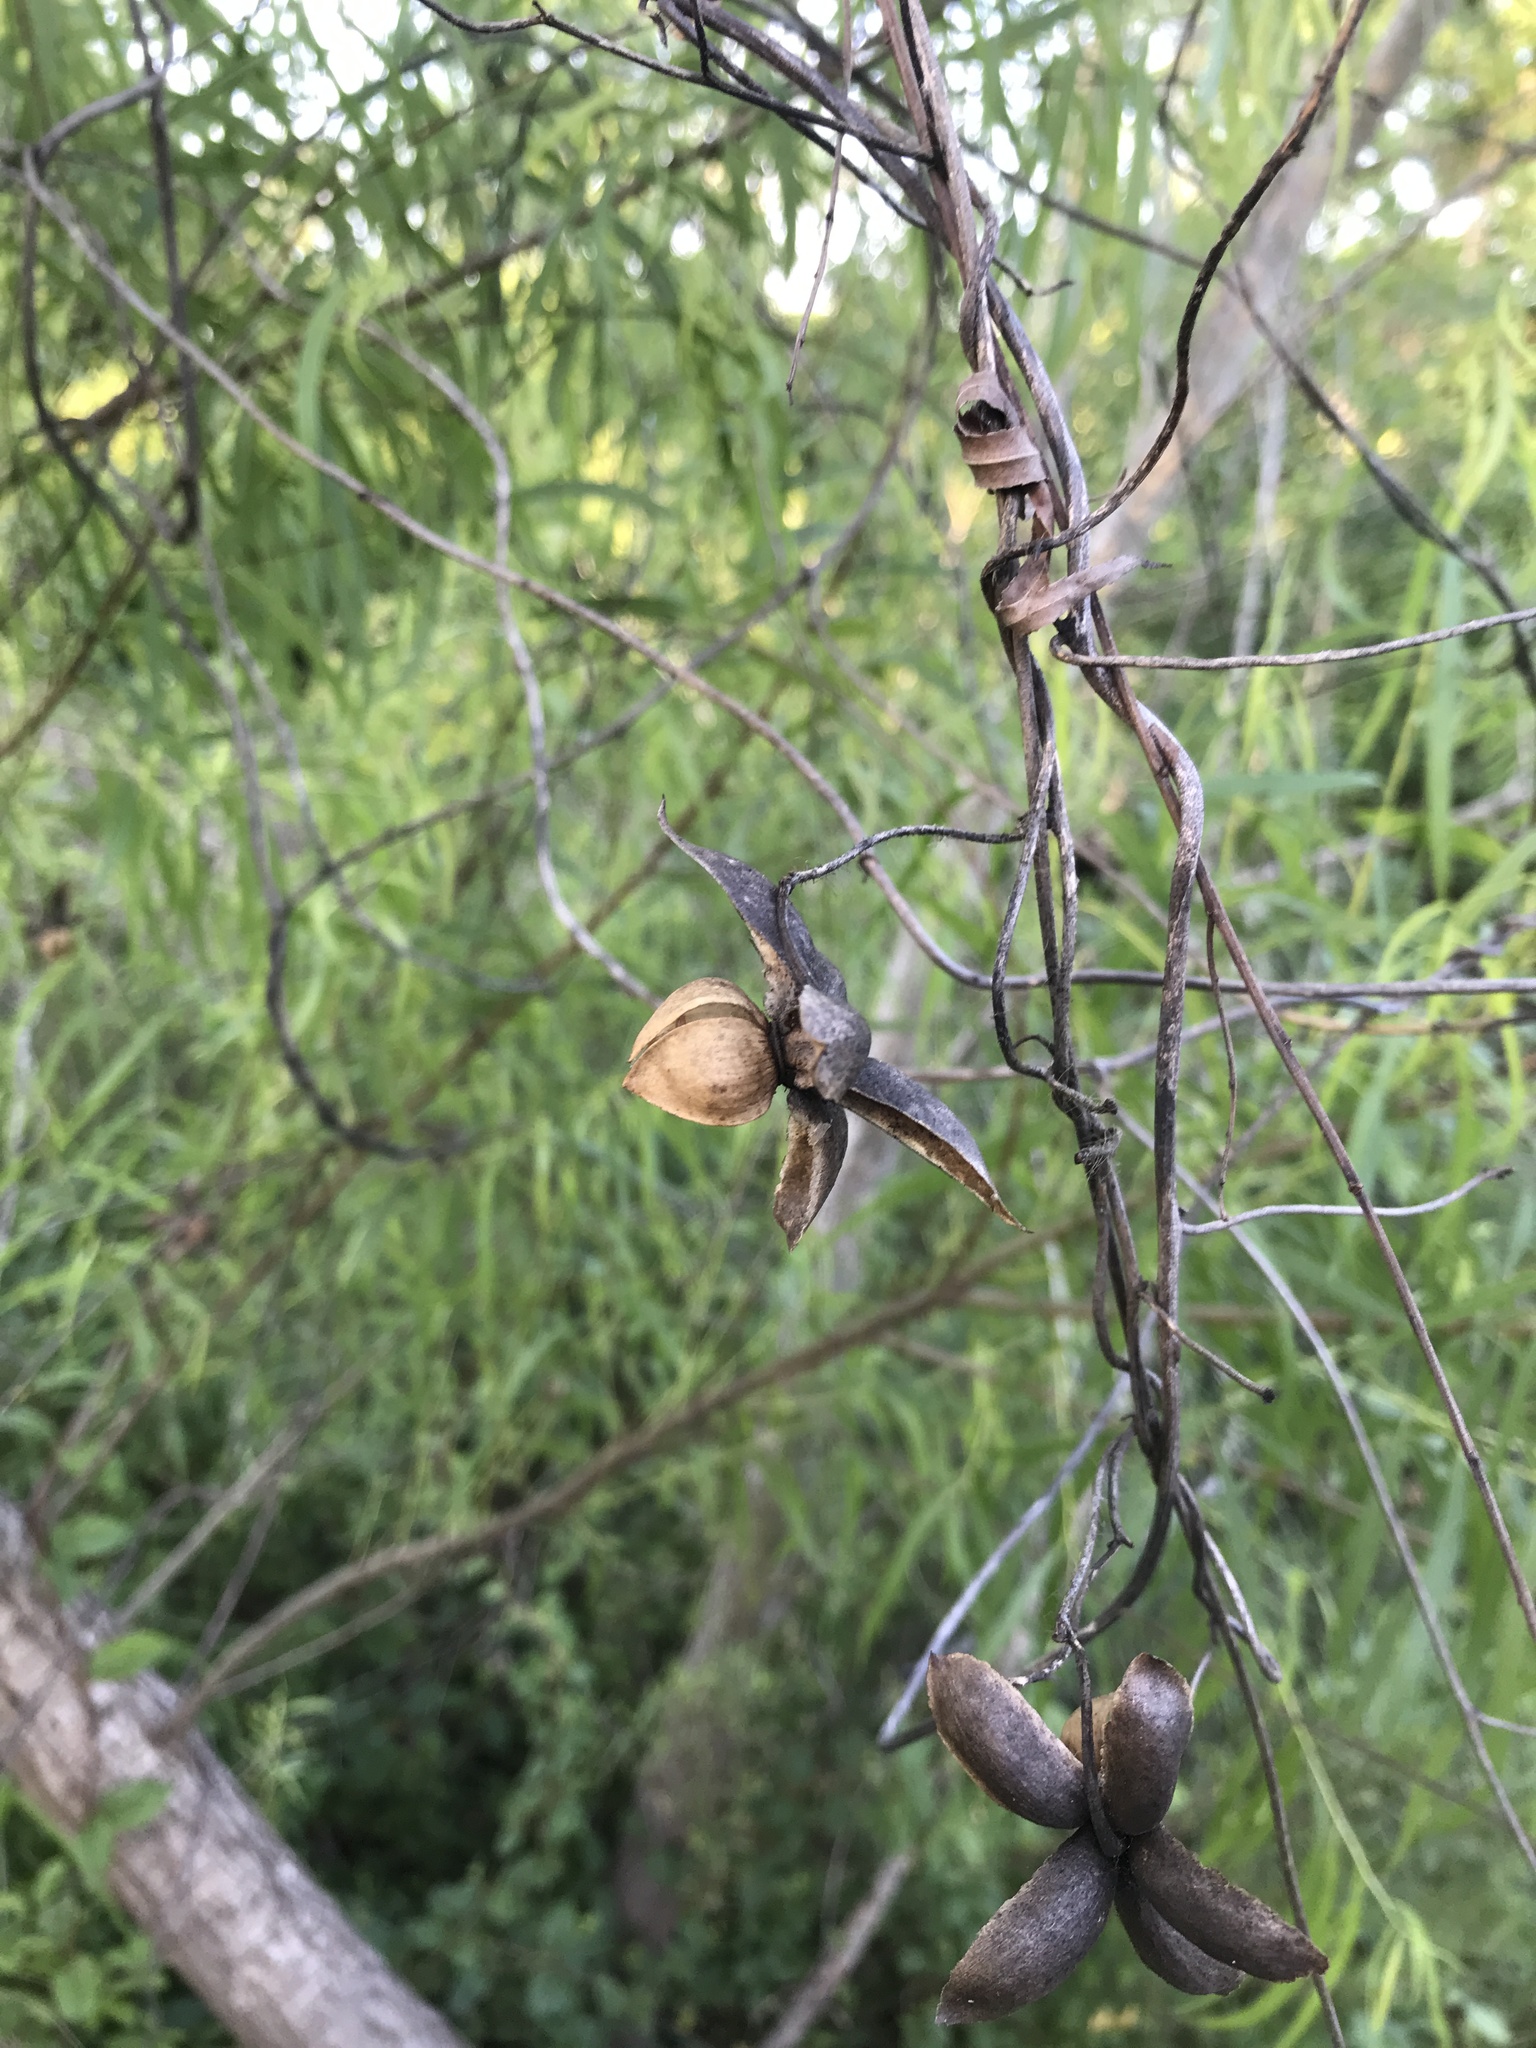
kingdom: Plantae
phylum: Tracheophyta
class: Magnoliopsida
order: Solanales
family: Convolvulaceae
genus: Distimake
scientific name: Distimake dissectus
